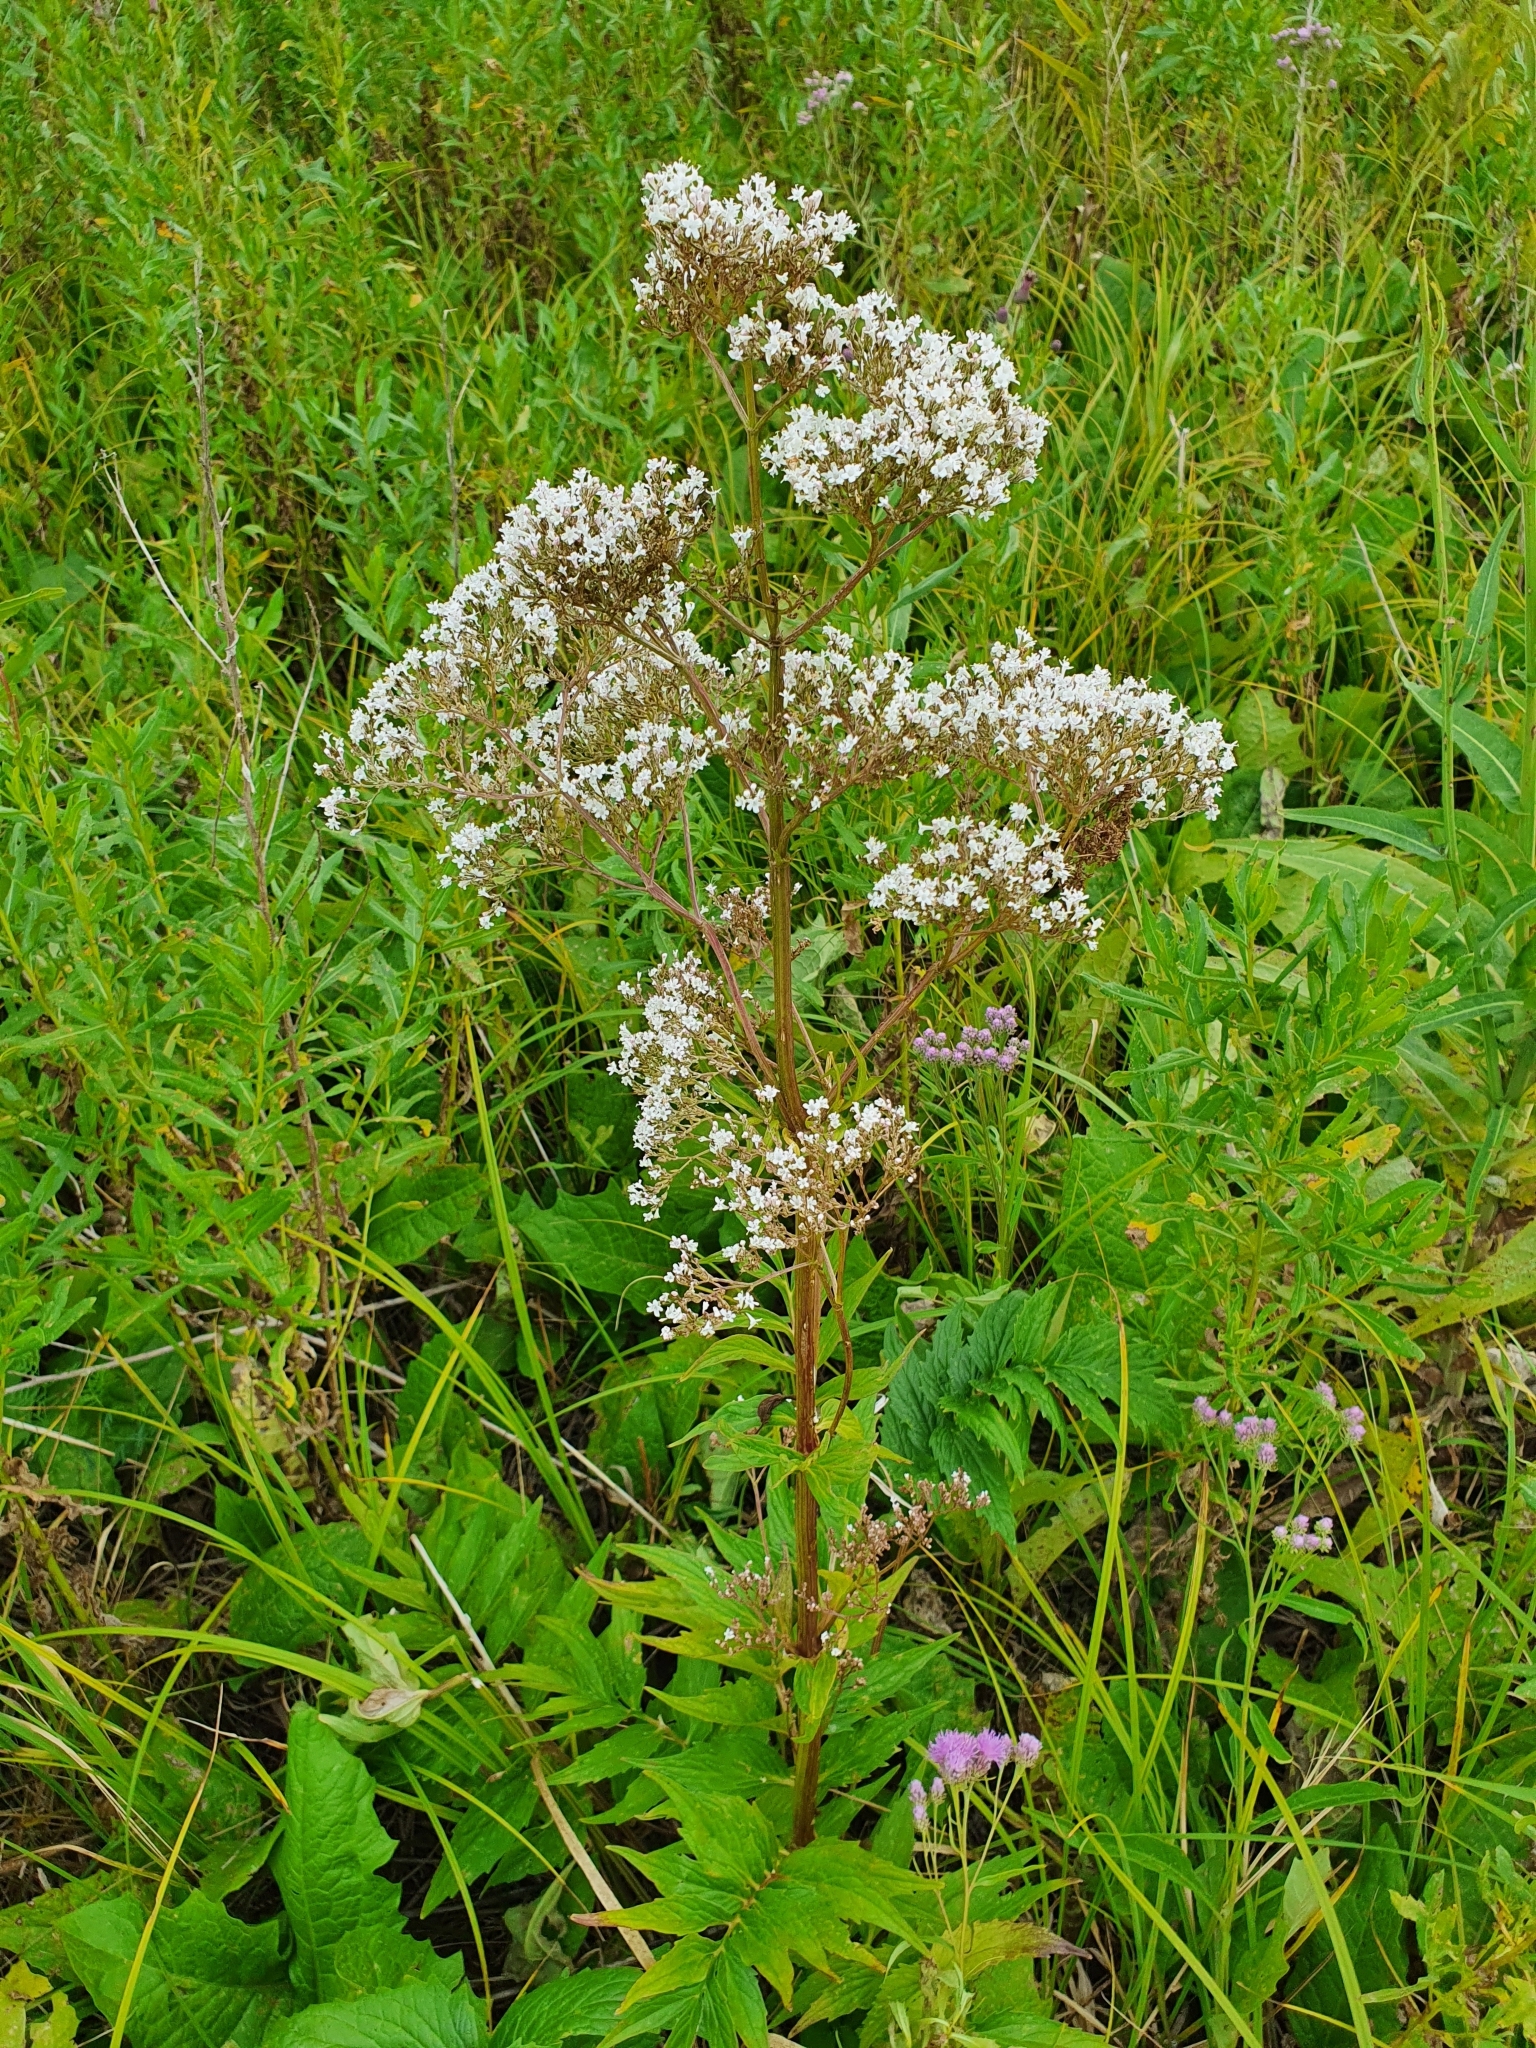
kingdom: Plantae
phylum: Tracheophyta
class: Magnoliopsida
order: Dipsacales
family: Caprifoliaceae
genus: Valeriana
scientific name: Valeriana officinalis
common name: Common valerian
